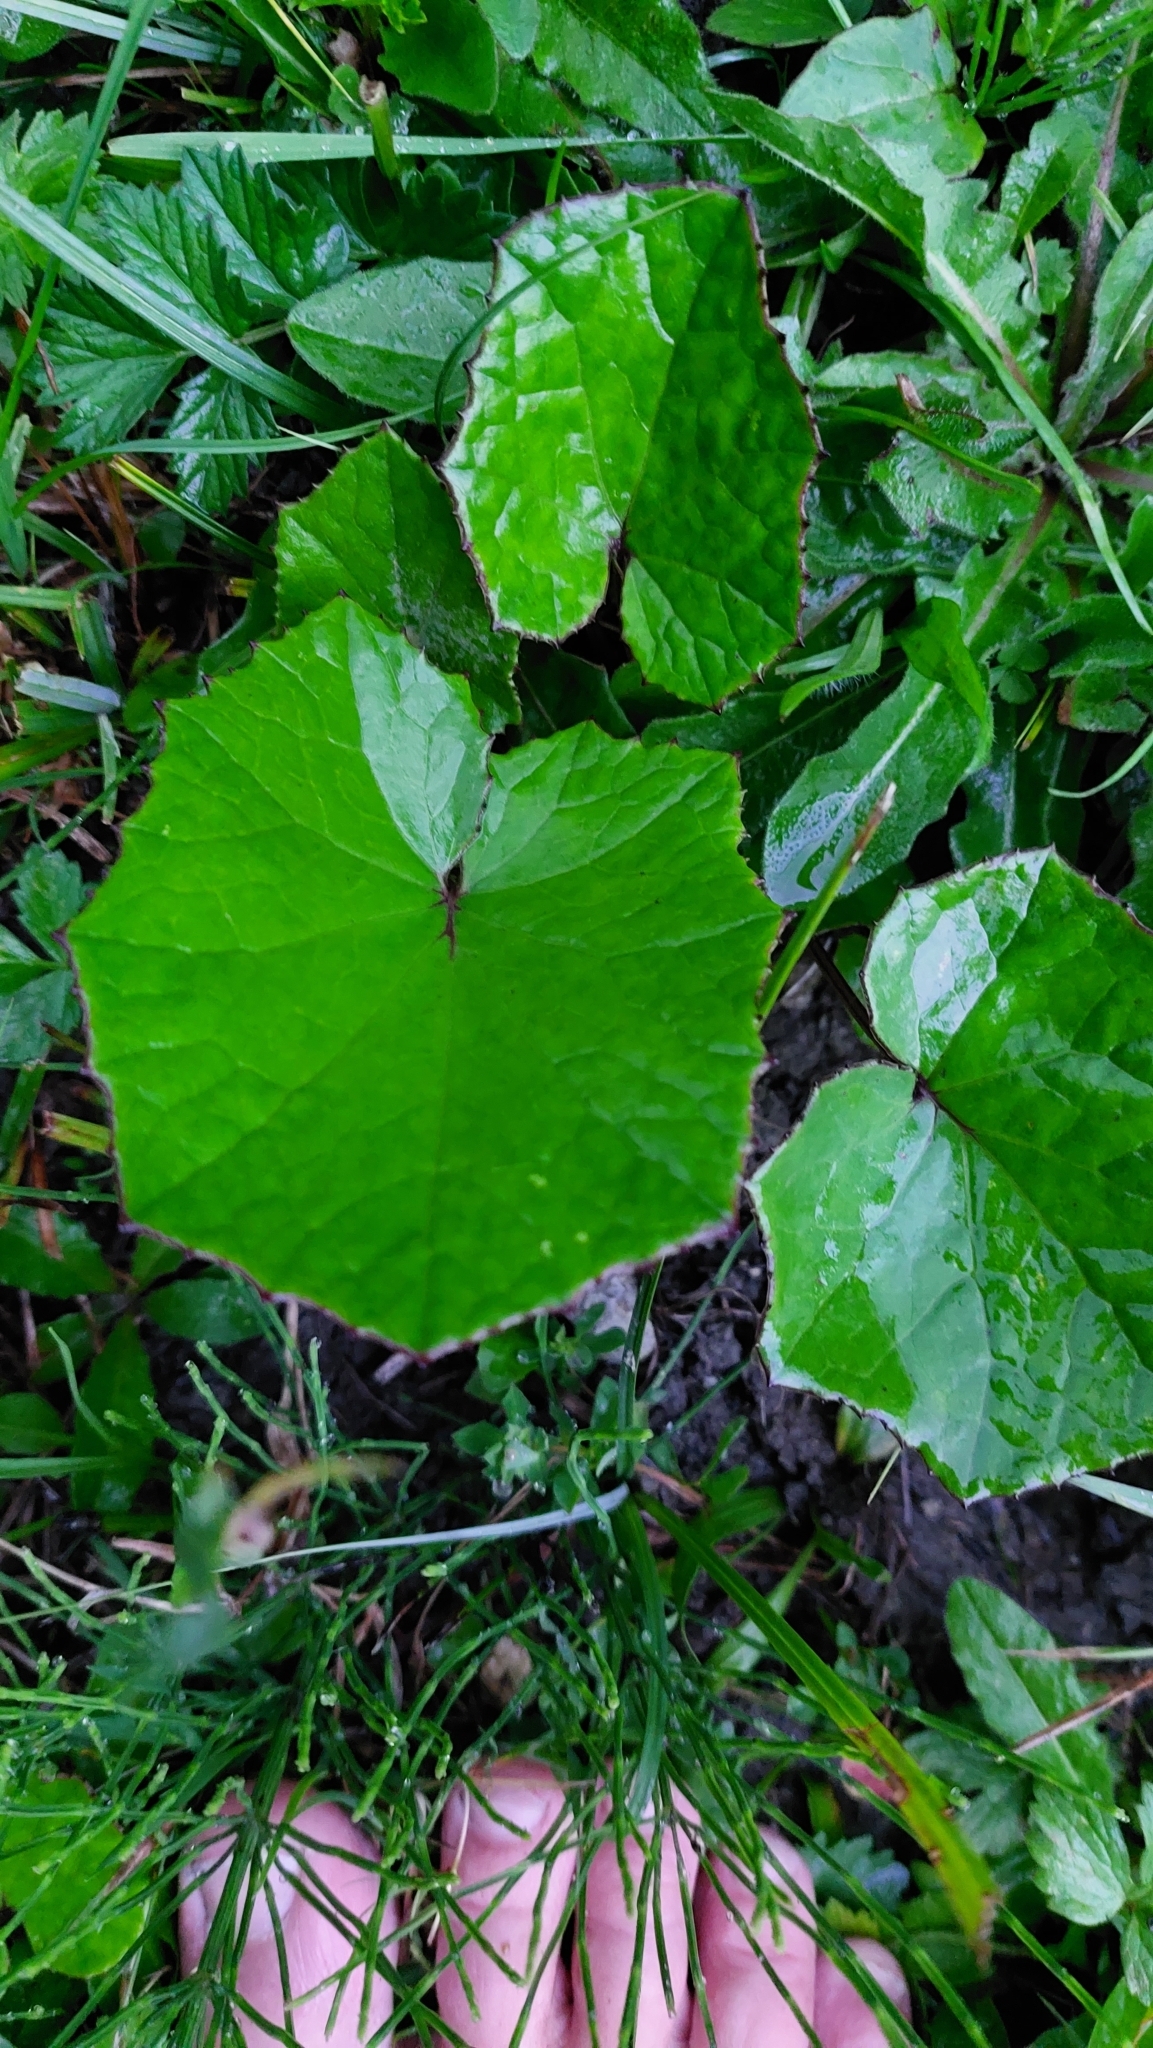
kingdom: Plantae
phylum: Tracheophyta
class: Magnoliopsida
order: Asterales
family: Asteraceae
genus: Tussilago
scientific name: Tussilago farfara
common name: Coltsfoot
